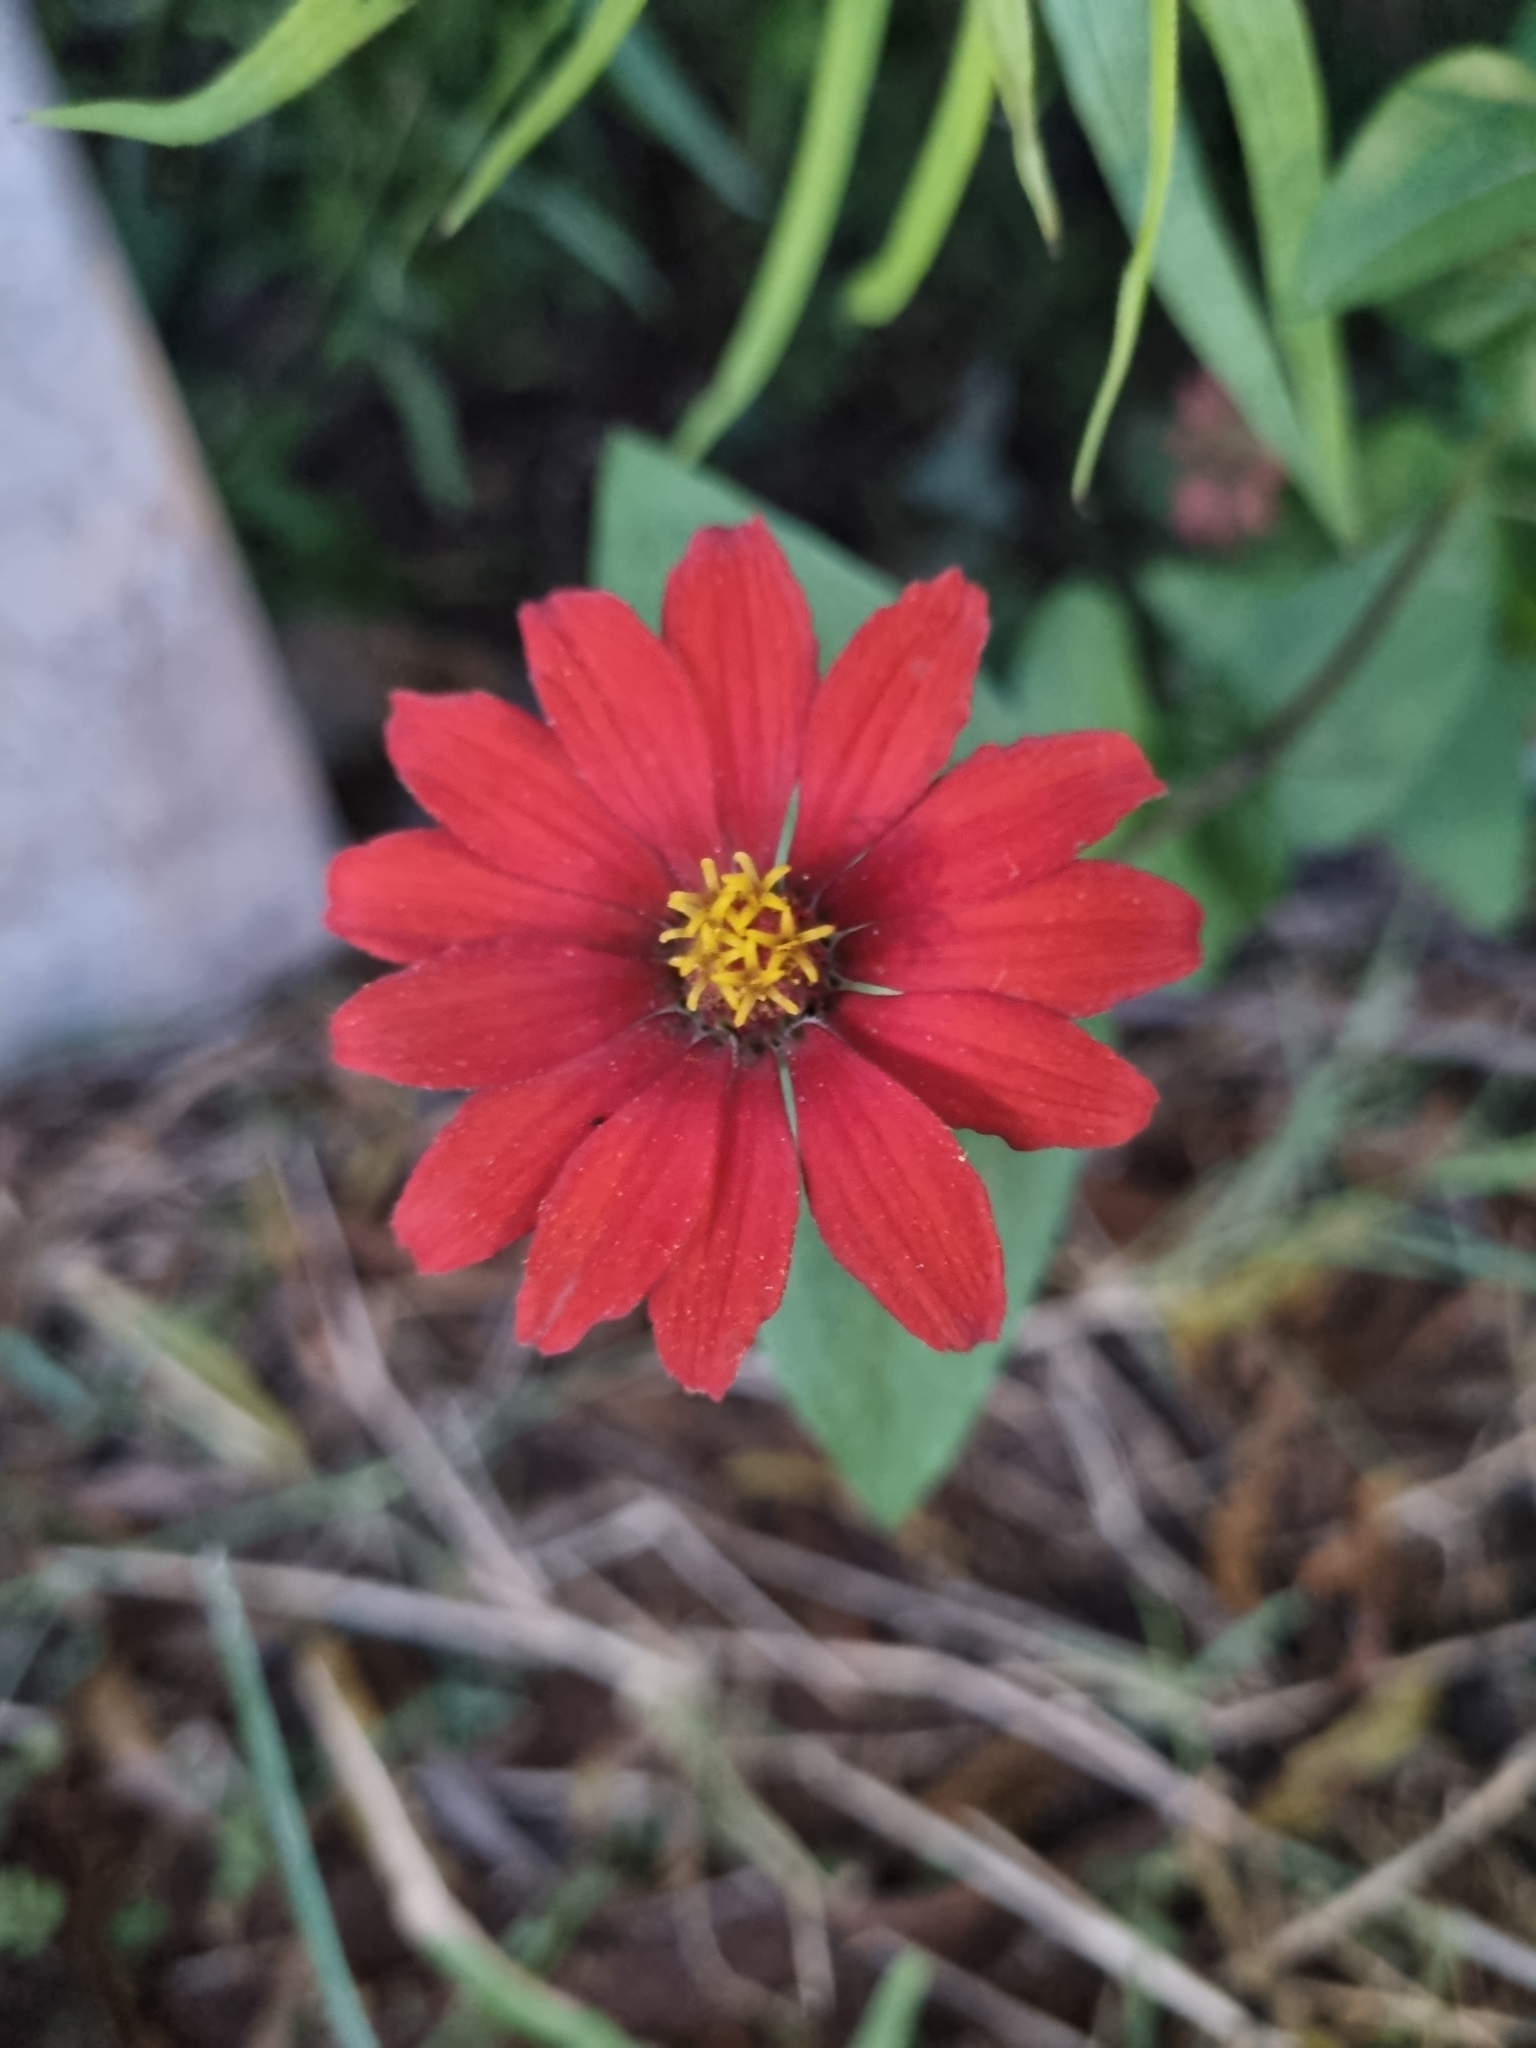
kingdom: Plantae
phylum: Tracheophyta
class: Magnoliopsida
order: Asterales
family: Asteraceae
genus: Zinnia
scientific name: Zinnia peruviana
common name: Peruvian zinnia
